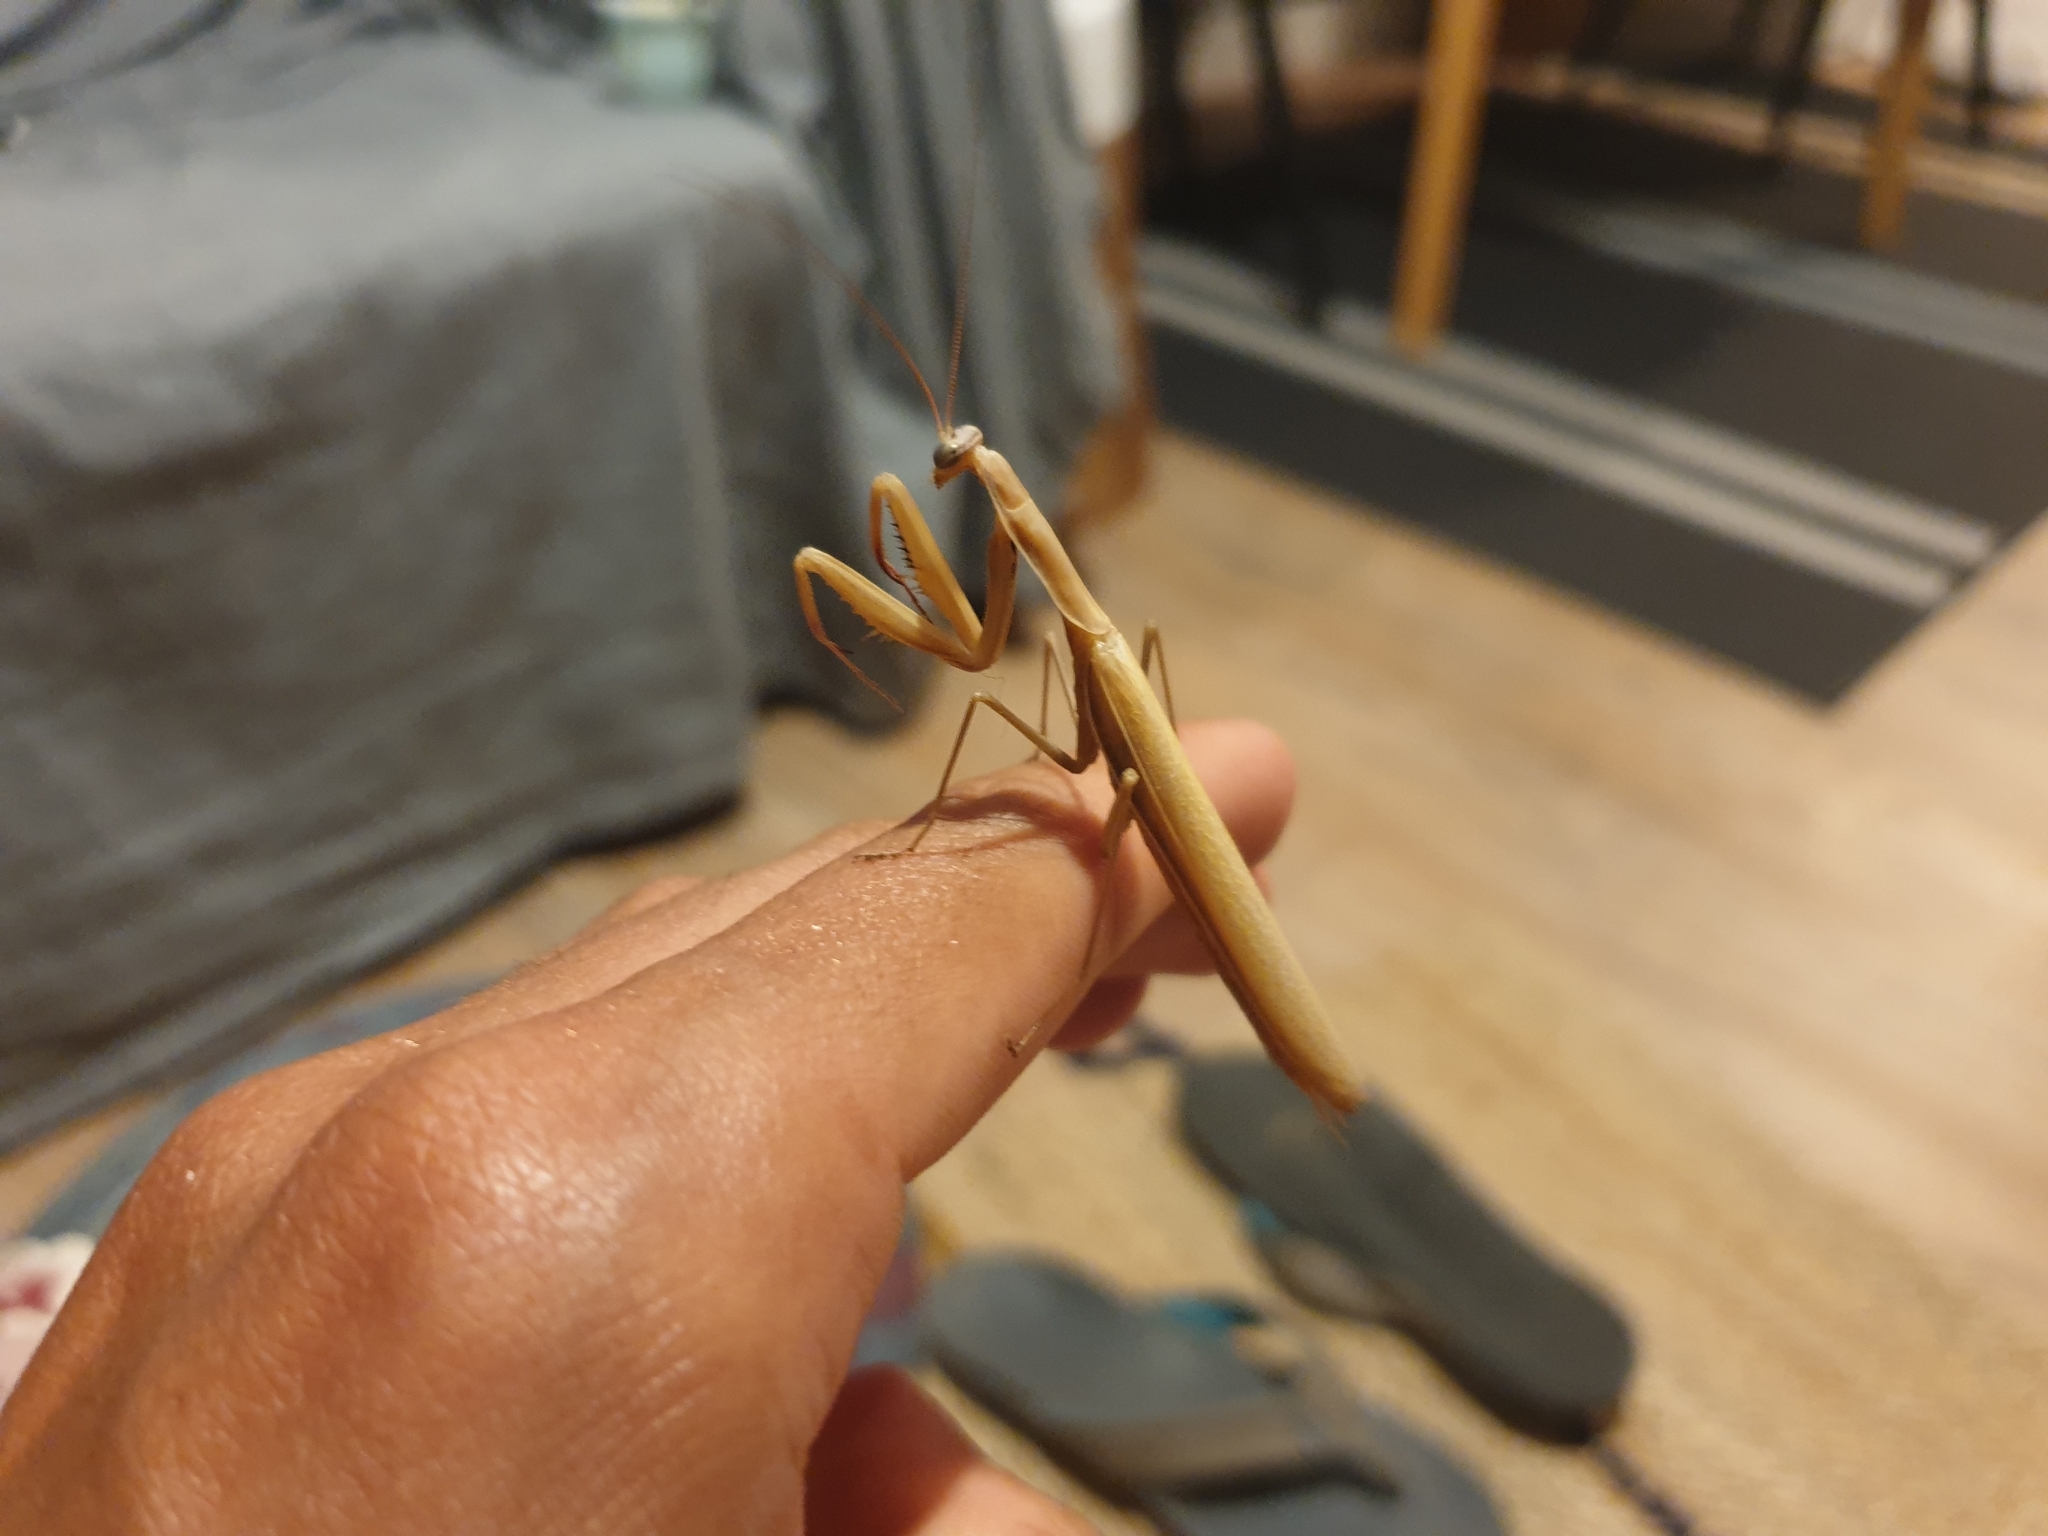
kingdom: Animalia
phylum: Arthropoda
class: Insecta
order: Mantodea
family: Mantidae
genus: Mantis
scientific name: Mantis religiosa
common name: Praying mantis
